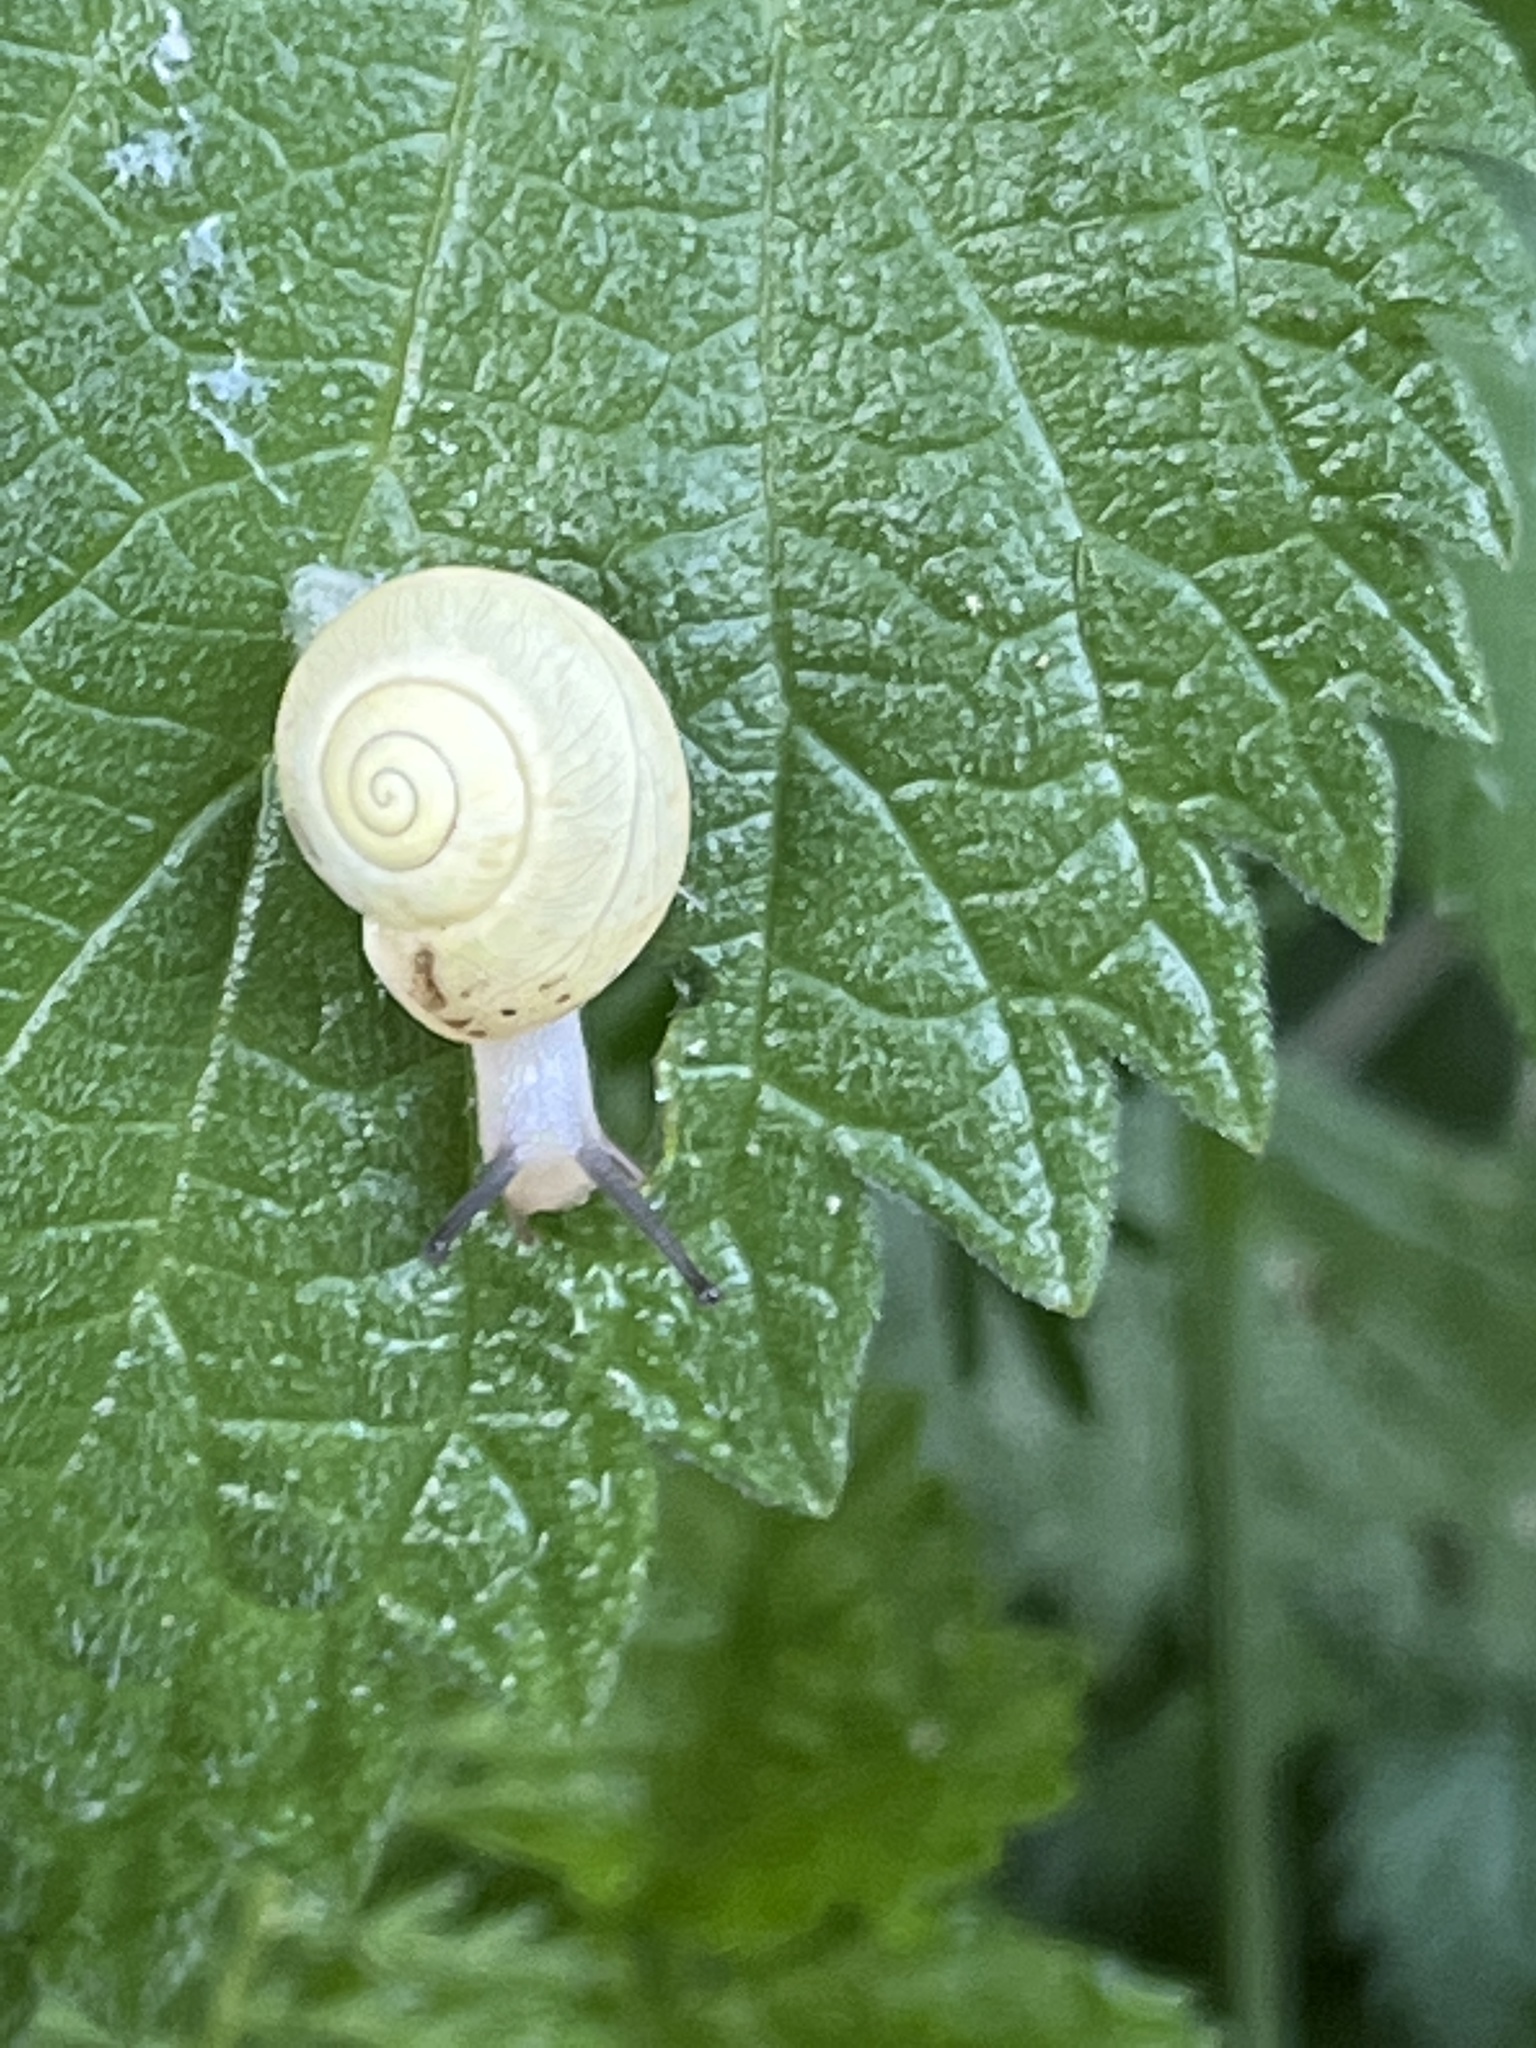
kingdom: Animalia
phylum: Mollusca
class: Gastropoda
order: Stylommatophora
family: Camaenidae
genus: Fruticicola
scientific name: Fruticicola fruticum
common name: Bush snail
